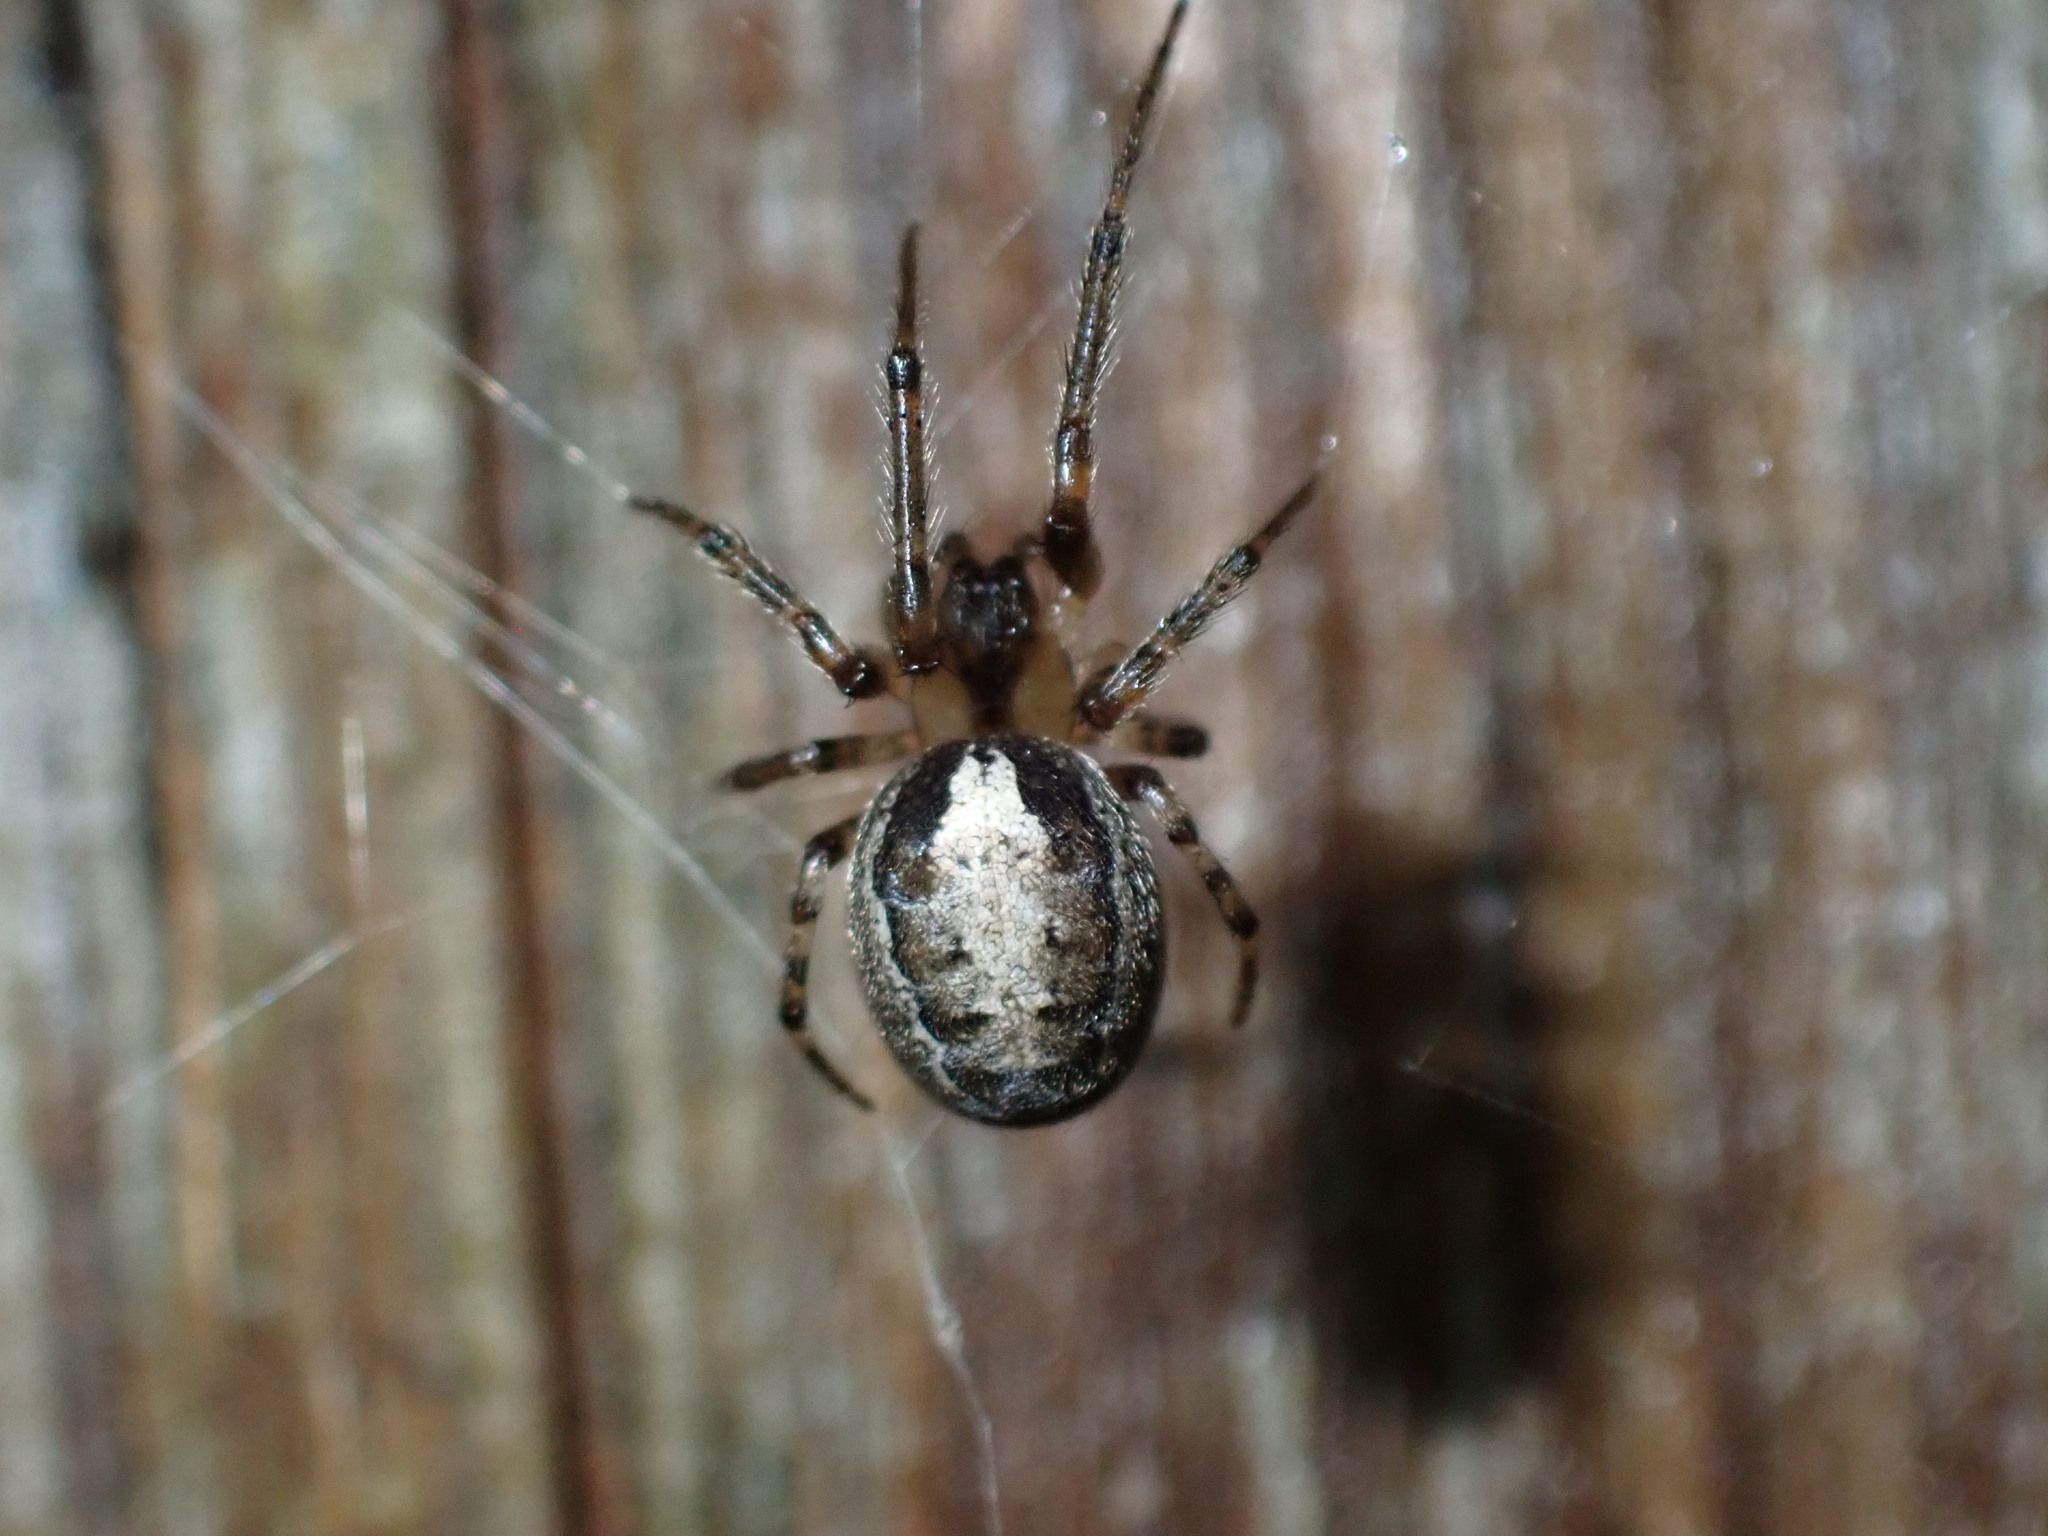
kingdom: Animalia
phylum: Arthropoda
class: Arachnida
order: Araneae
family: Araneidae
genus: Zygiella
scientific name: Zygiella x-notata
